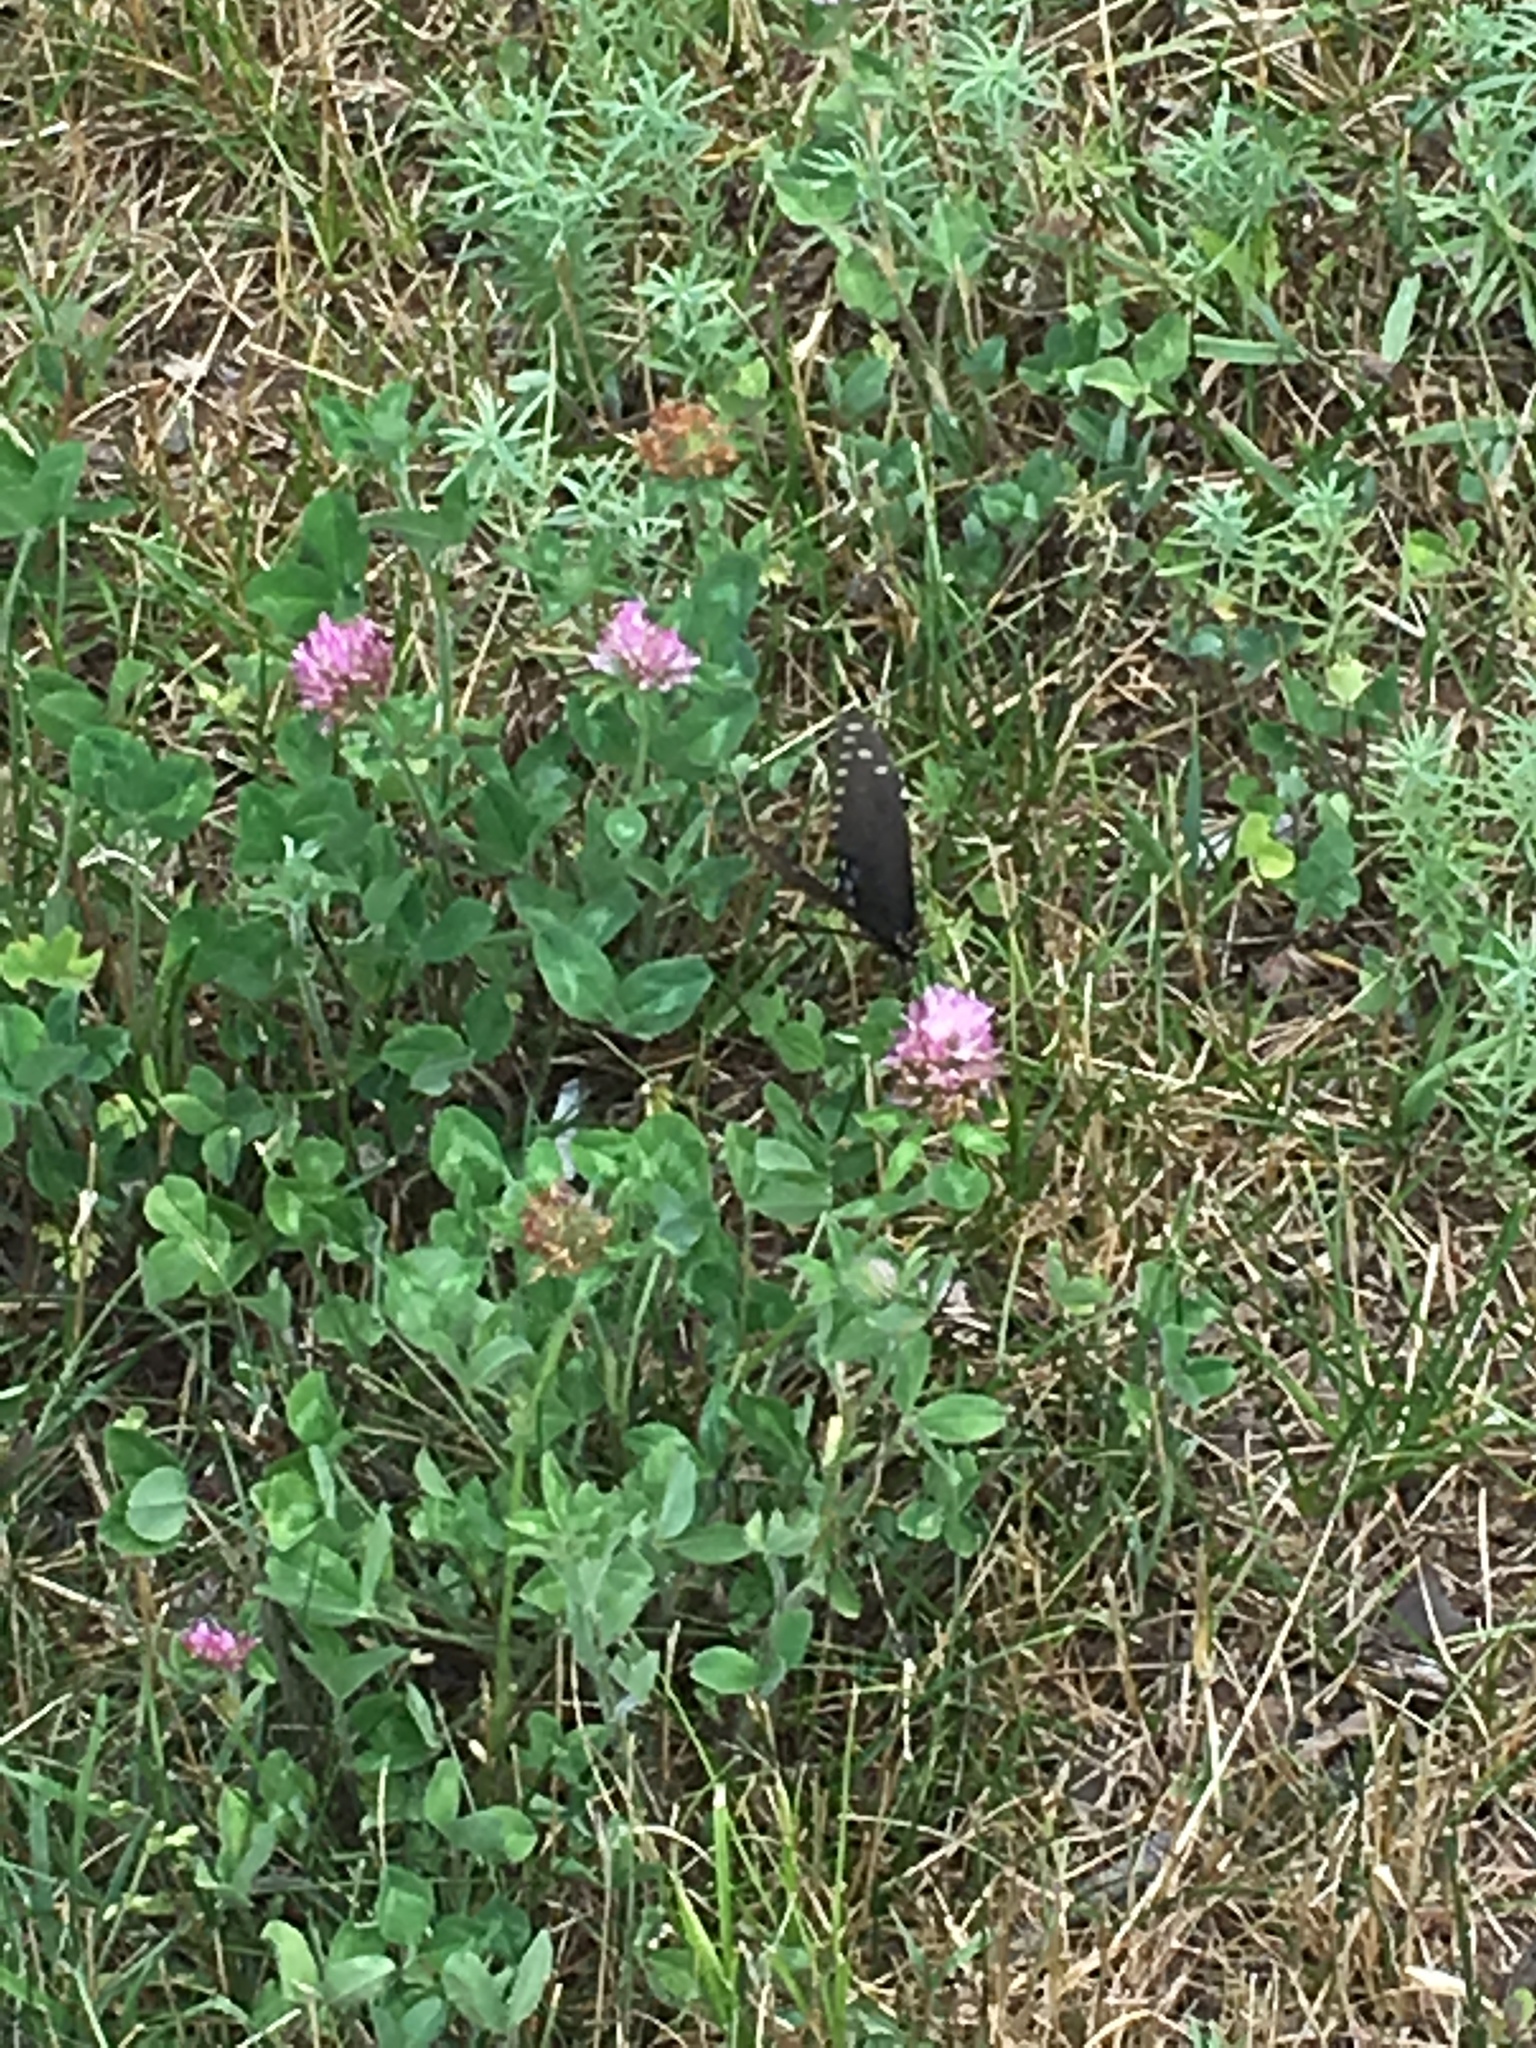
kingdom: Animalia
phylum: Arthropoda
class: Insecta
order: Lepidoptera
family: Papilionidae
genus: Papilio
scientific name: Papilio polyxenes
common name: Black swallowtail
